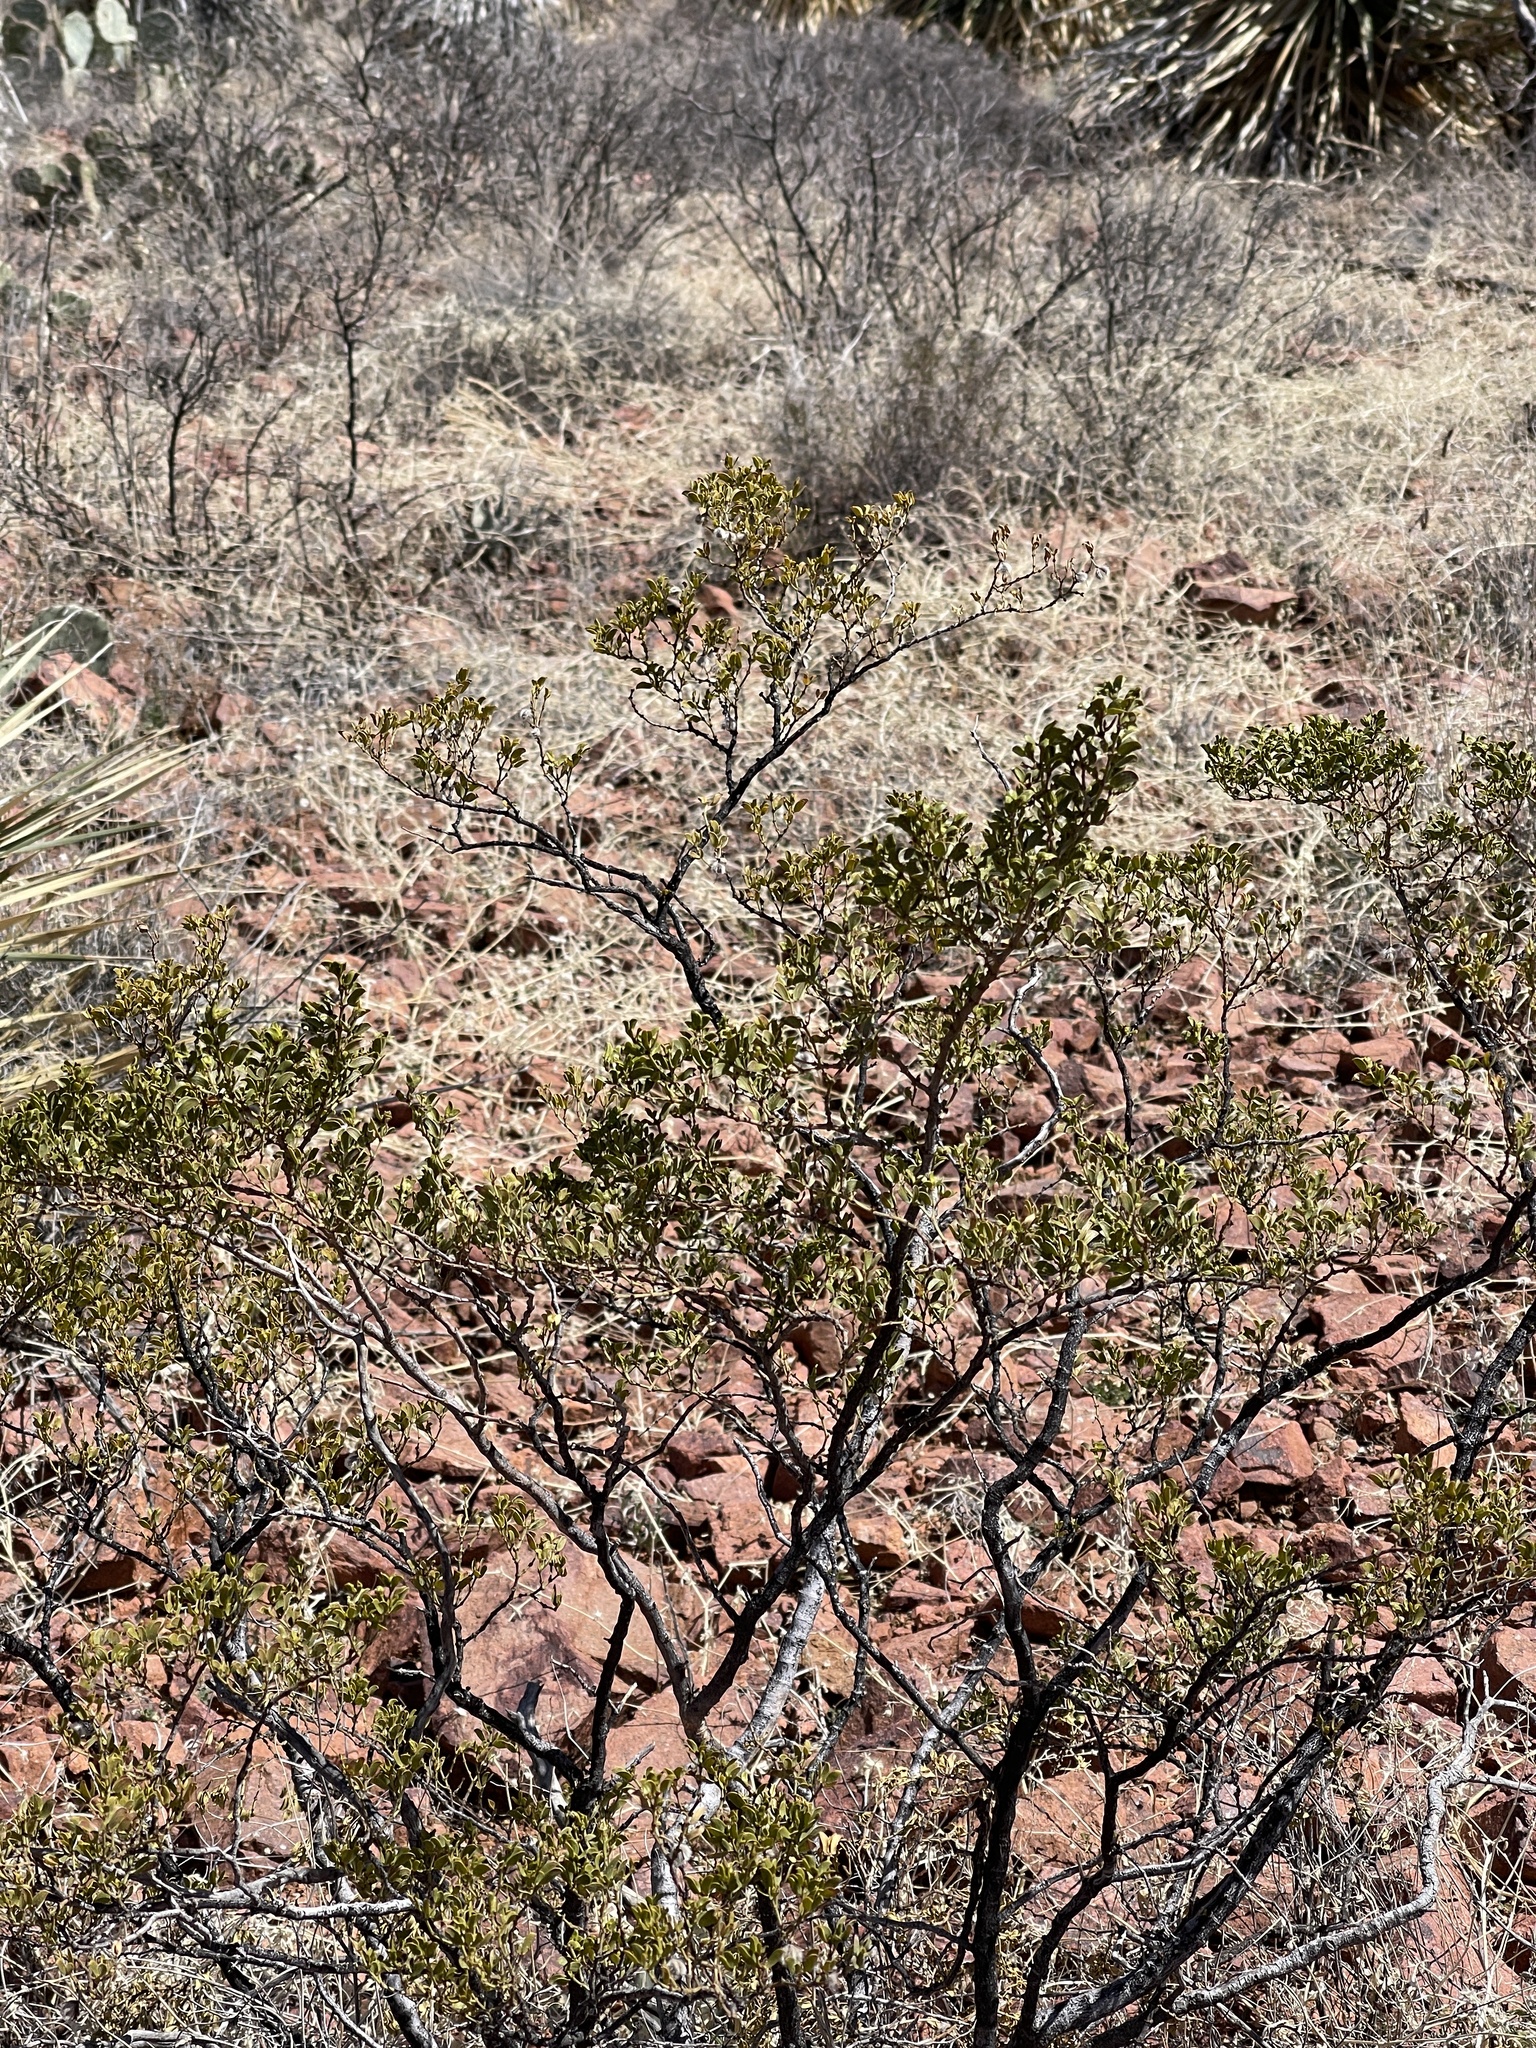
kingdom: Plantae
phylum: Tracheophyta
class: Magnoliopsida
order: Zygophyllales
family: Zygophyllaceae
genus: Larrea
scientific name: Larrea tridentata
